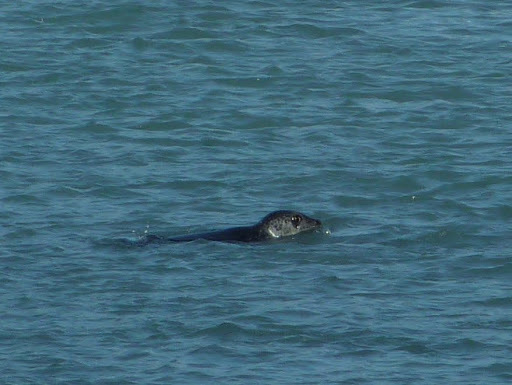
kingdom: Animalia
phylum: Chordata
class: Mammalia
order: Carnivora
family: Phocidae
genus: Phoca
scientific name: Phoca vitulina
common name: Harbor seal
